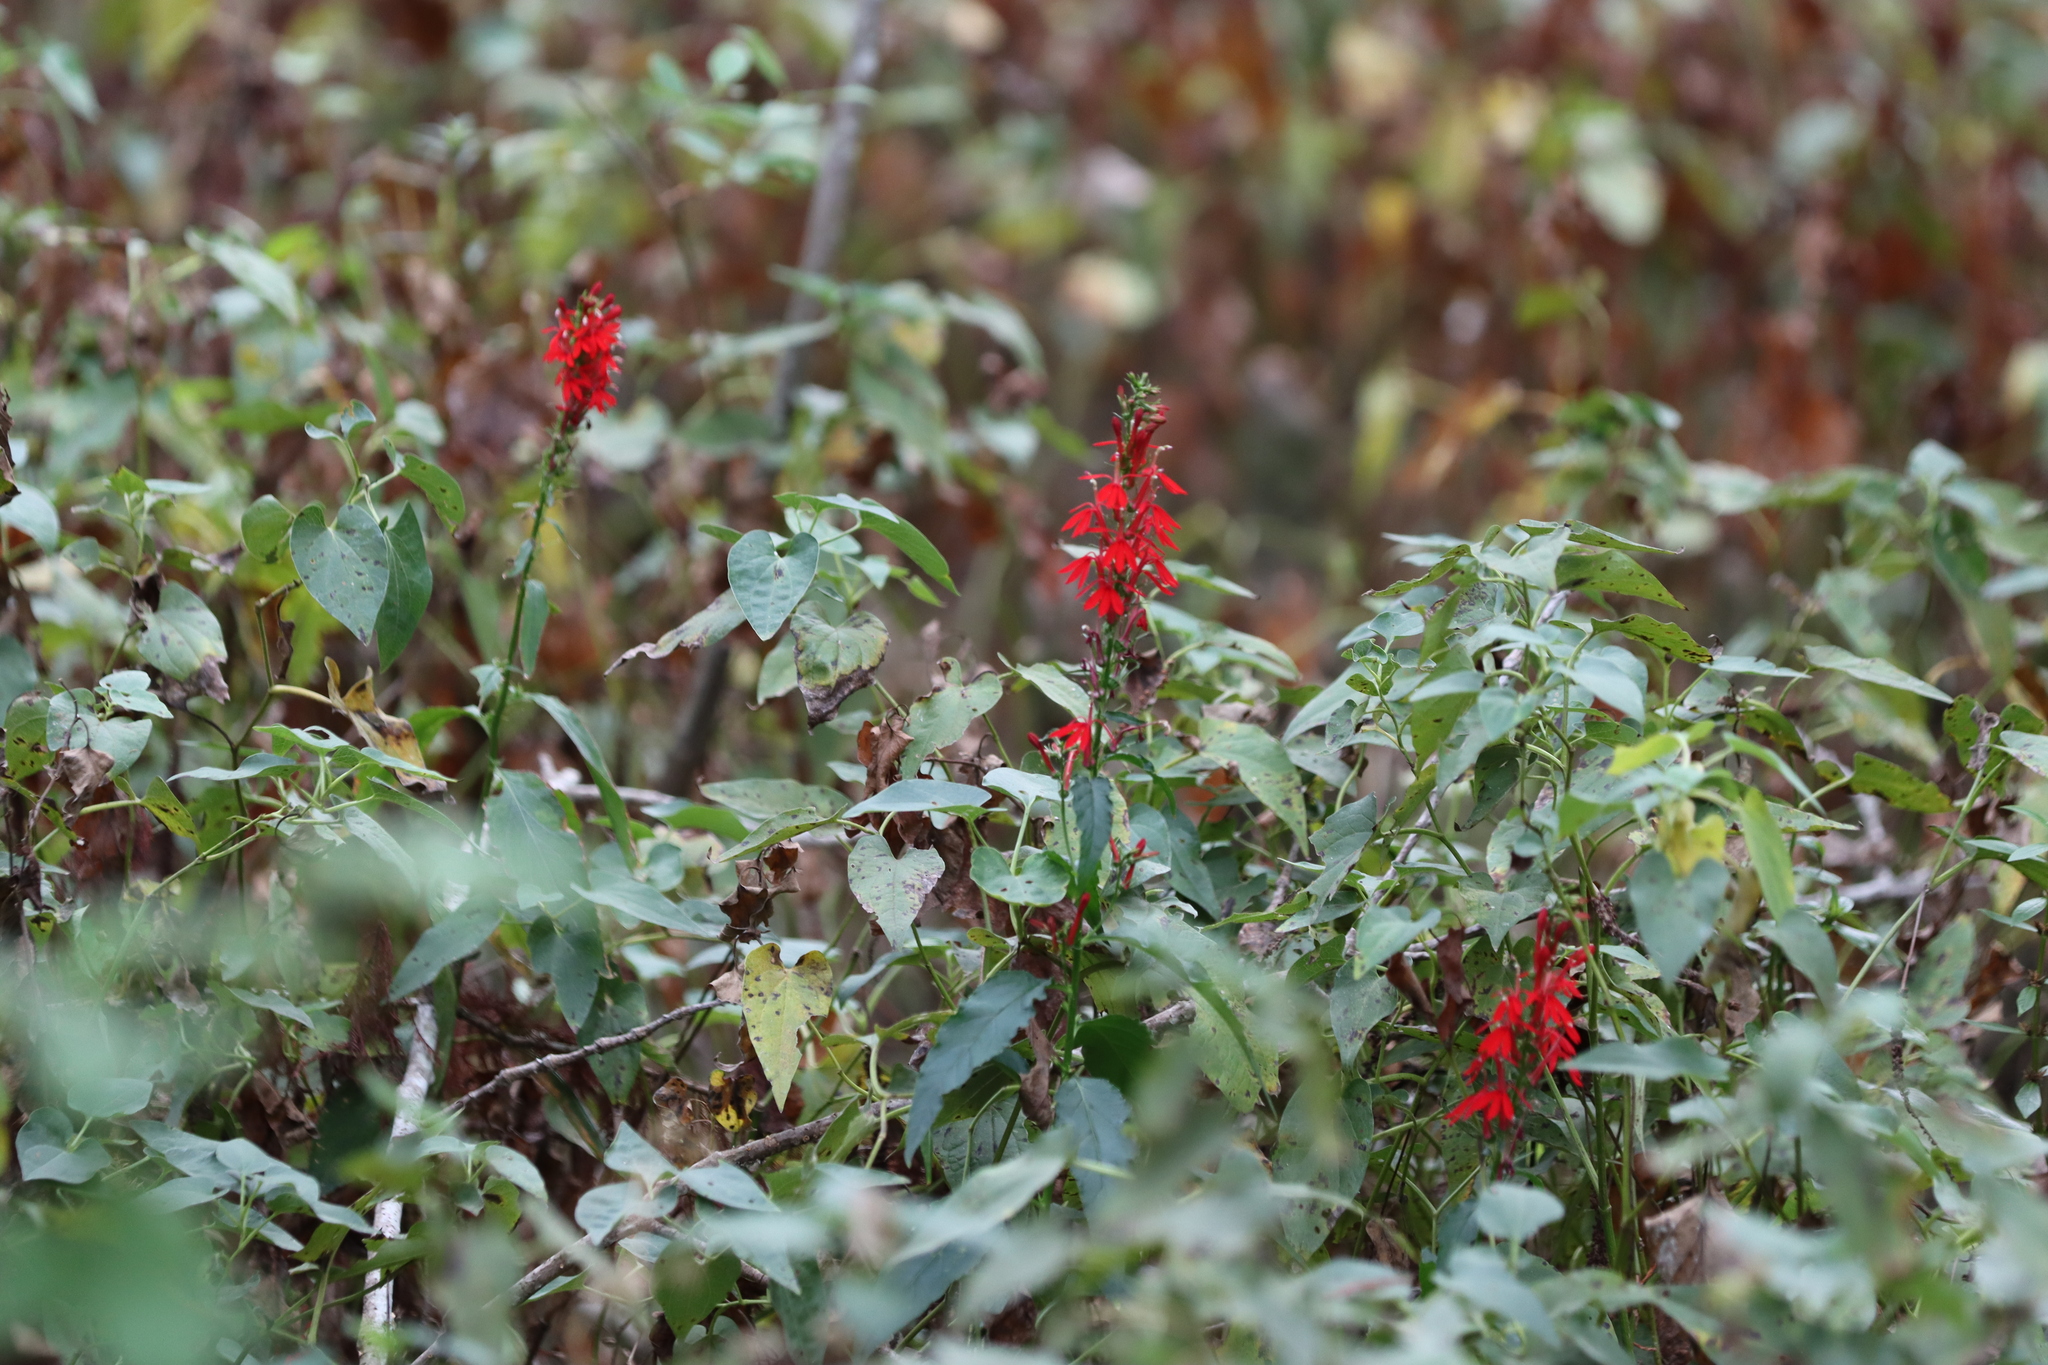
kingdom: Plantae
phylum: Tracheophyta
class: Magnoliopsida
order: Asterales
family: Campanulaceae
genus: Lobelia
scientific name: Lobelia cardinalis
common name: Cardinal flower
